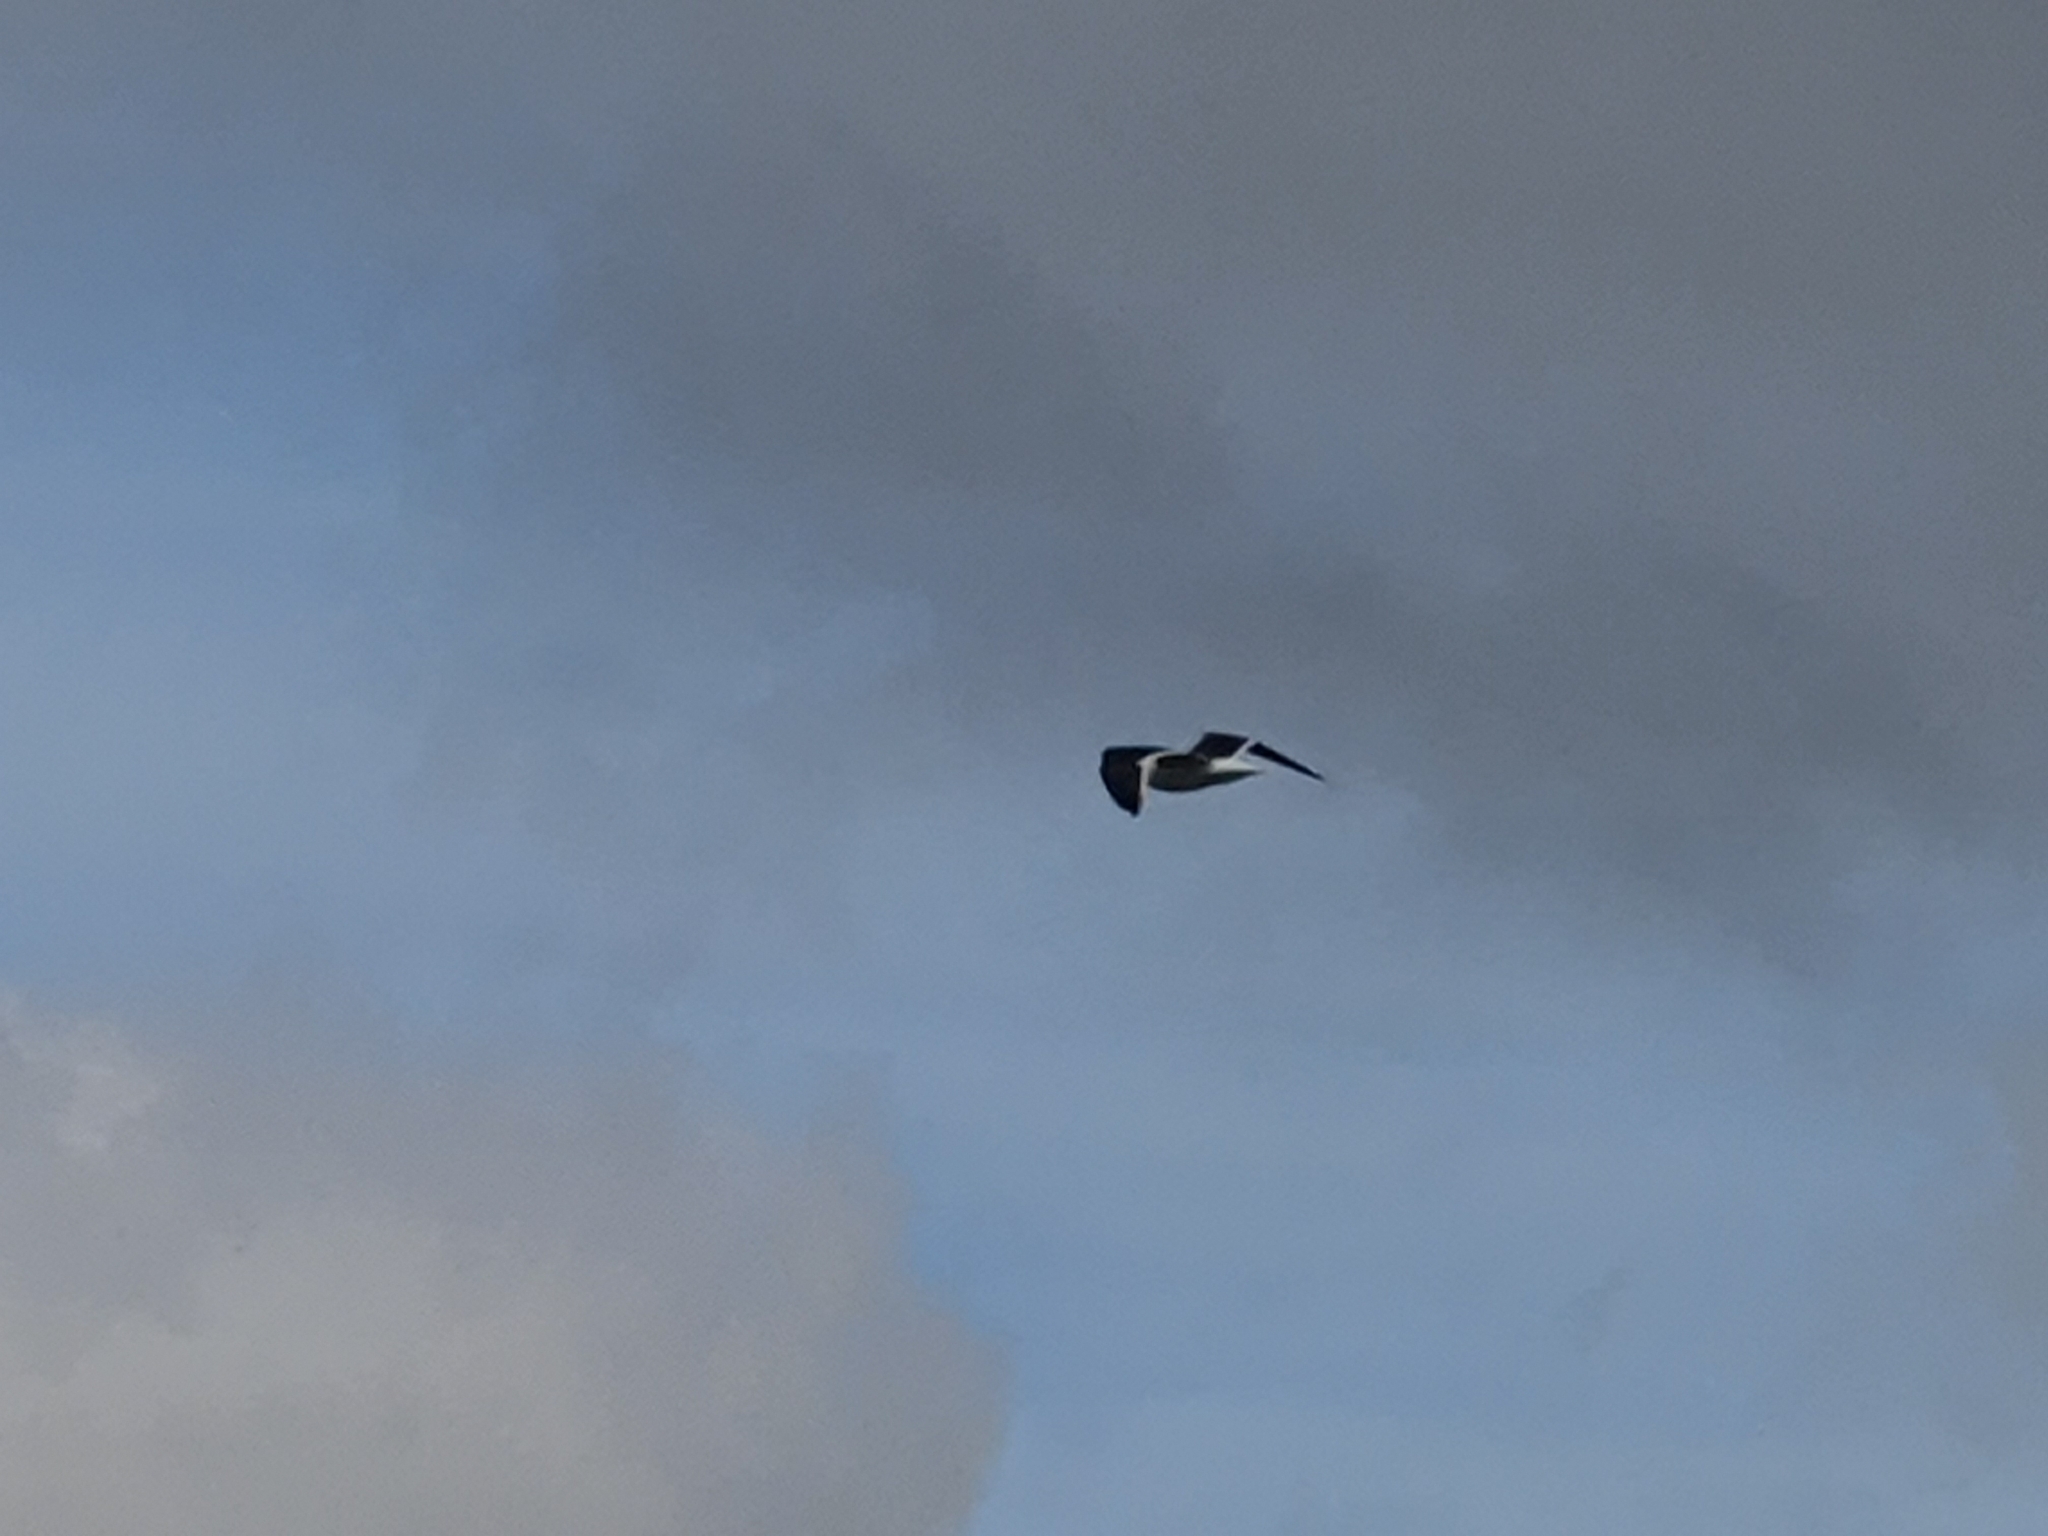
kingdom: Animalia
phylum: Chordata
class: Aves
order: Charadriiformes
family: Laridae
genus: Larus
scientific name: Larus dominicanus
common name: Kelp gull
